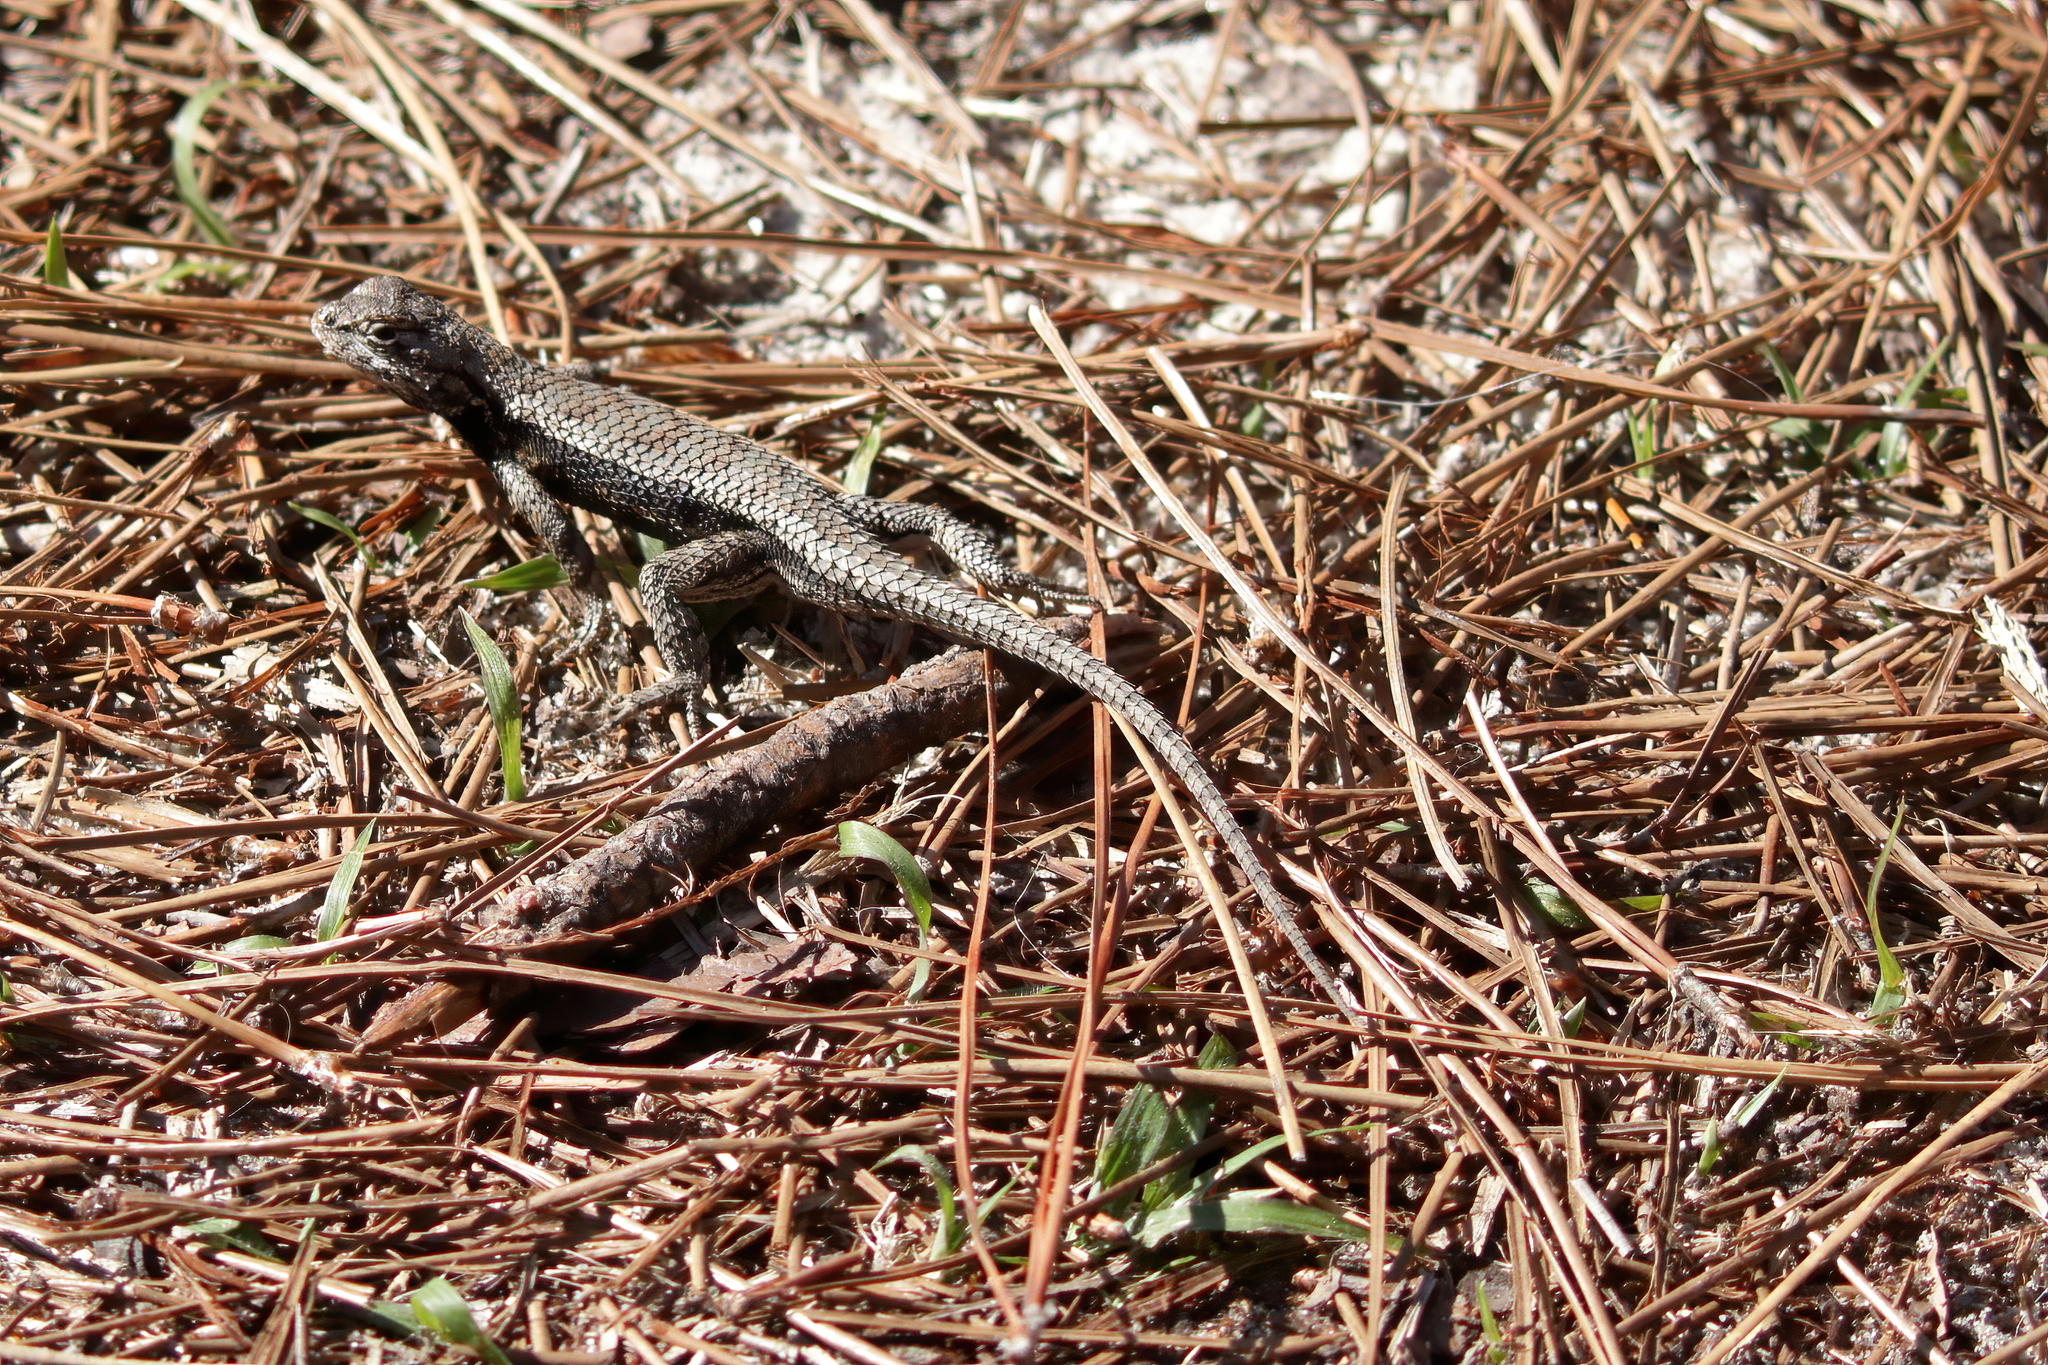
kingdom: Animalia
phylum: Chordata
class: Squamata
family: Phrynosomatidae
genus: Sceloporus
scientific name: Sceloporus undulatus
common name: Eastern fence lizard
